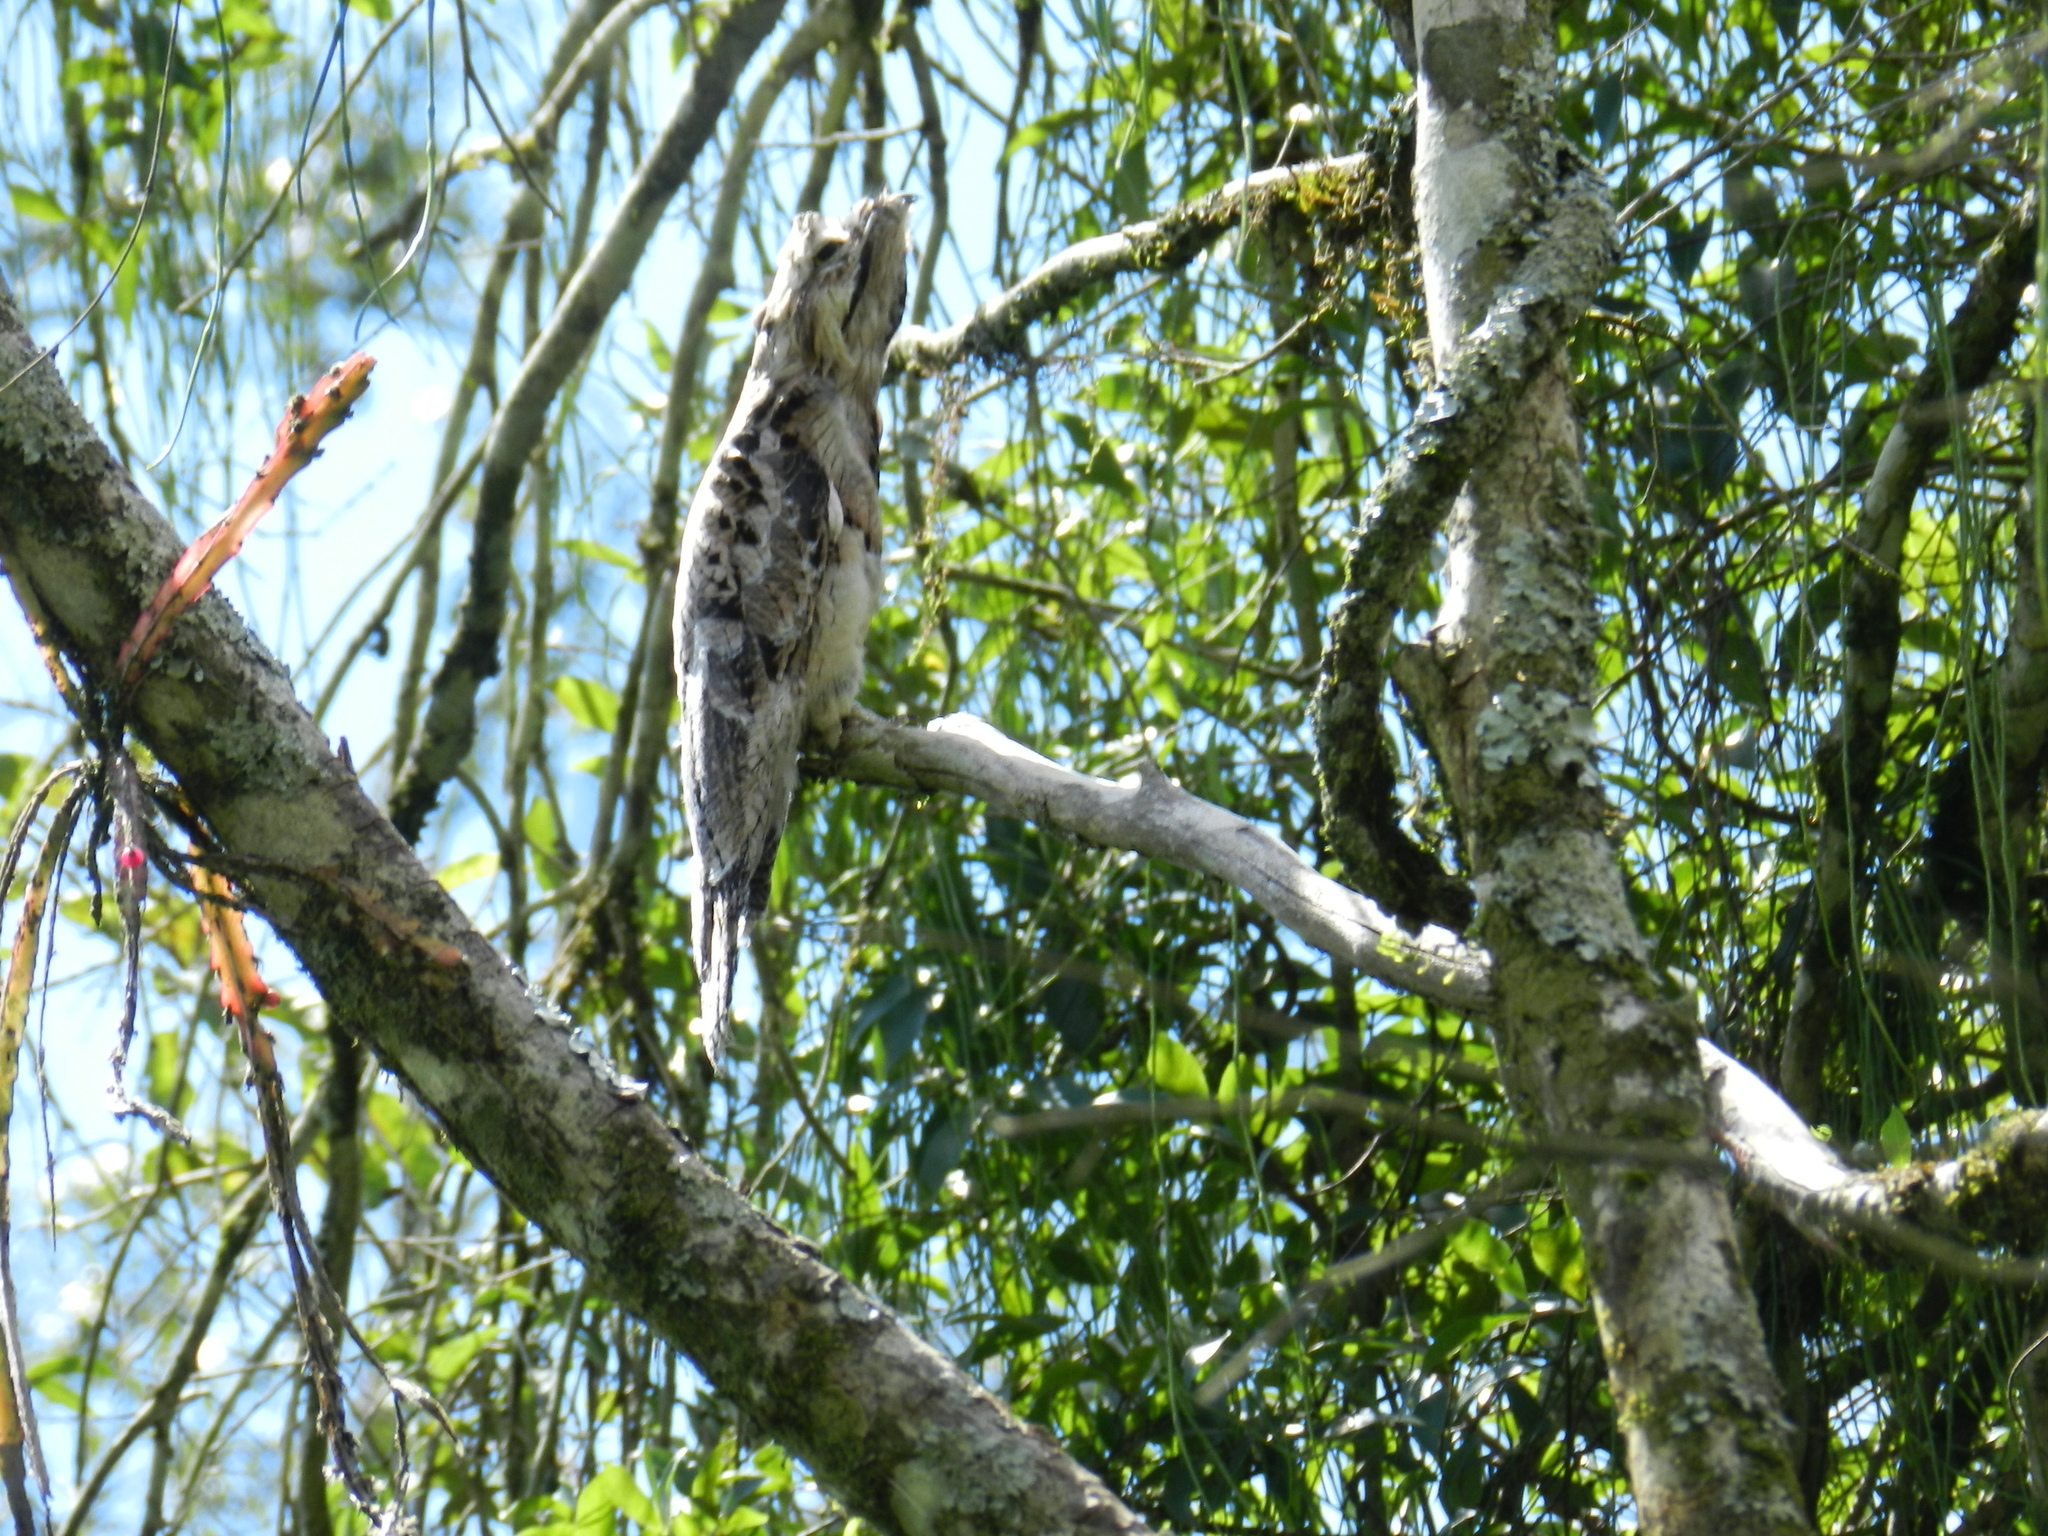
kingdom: Animalia
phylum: Chordata
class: Aves
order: Nyctibiiformes
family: Nyctibiidae
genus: Nyctibius
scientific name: Nyctibius griseus
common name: Common potoo
